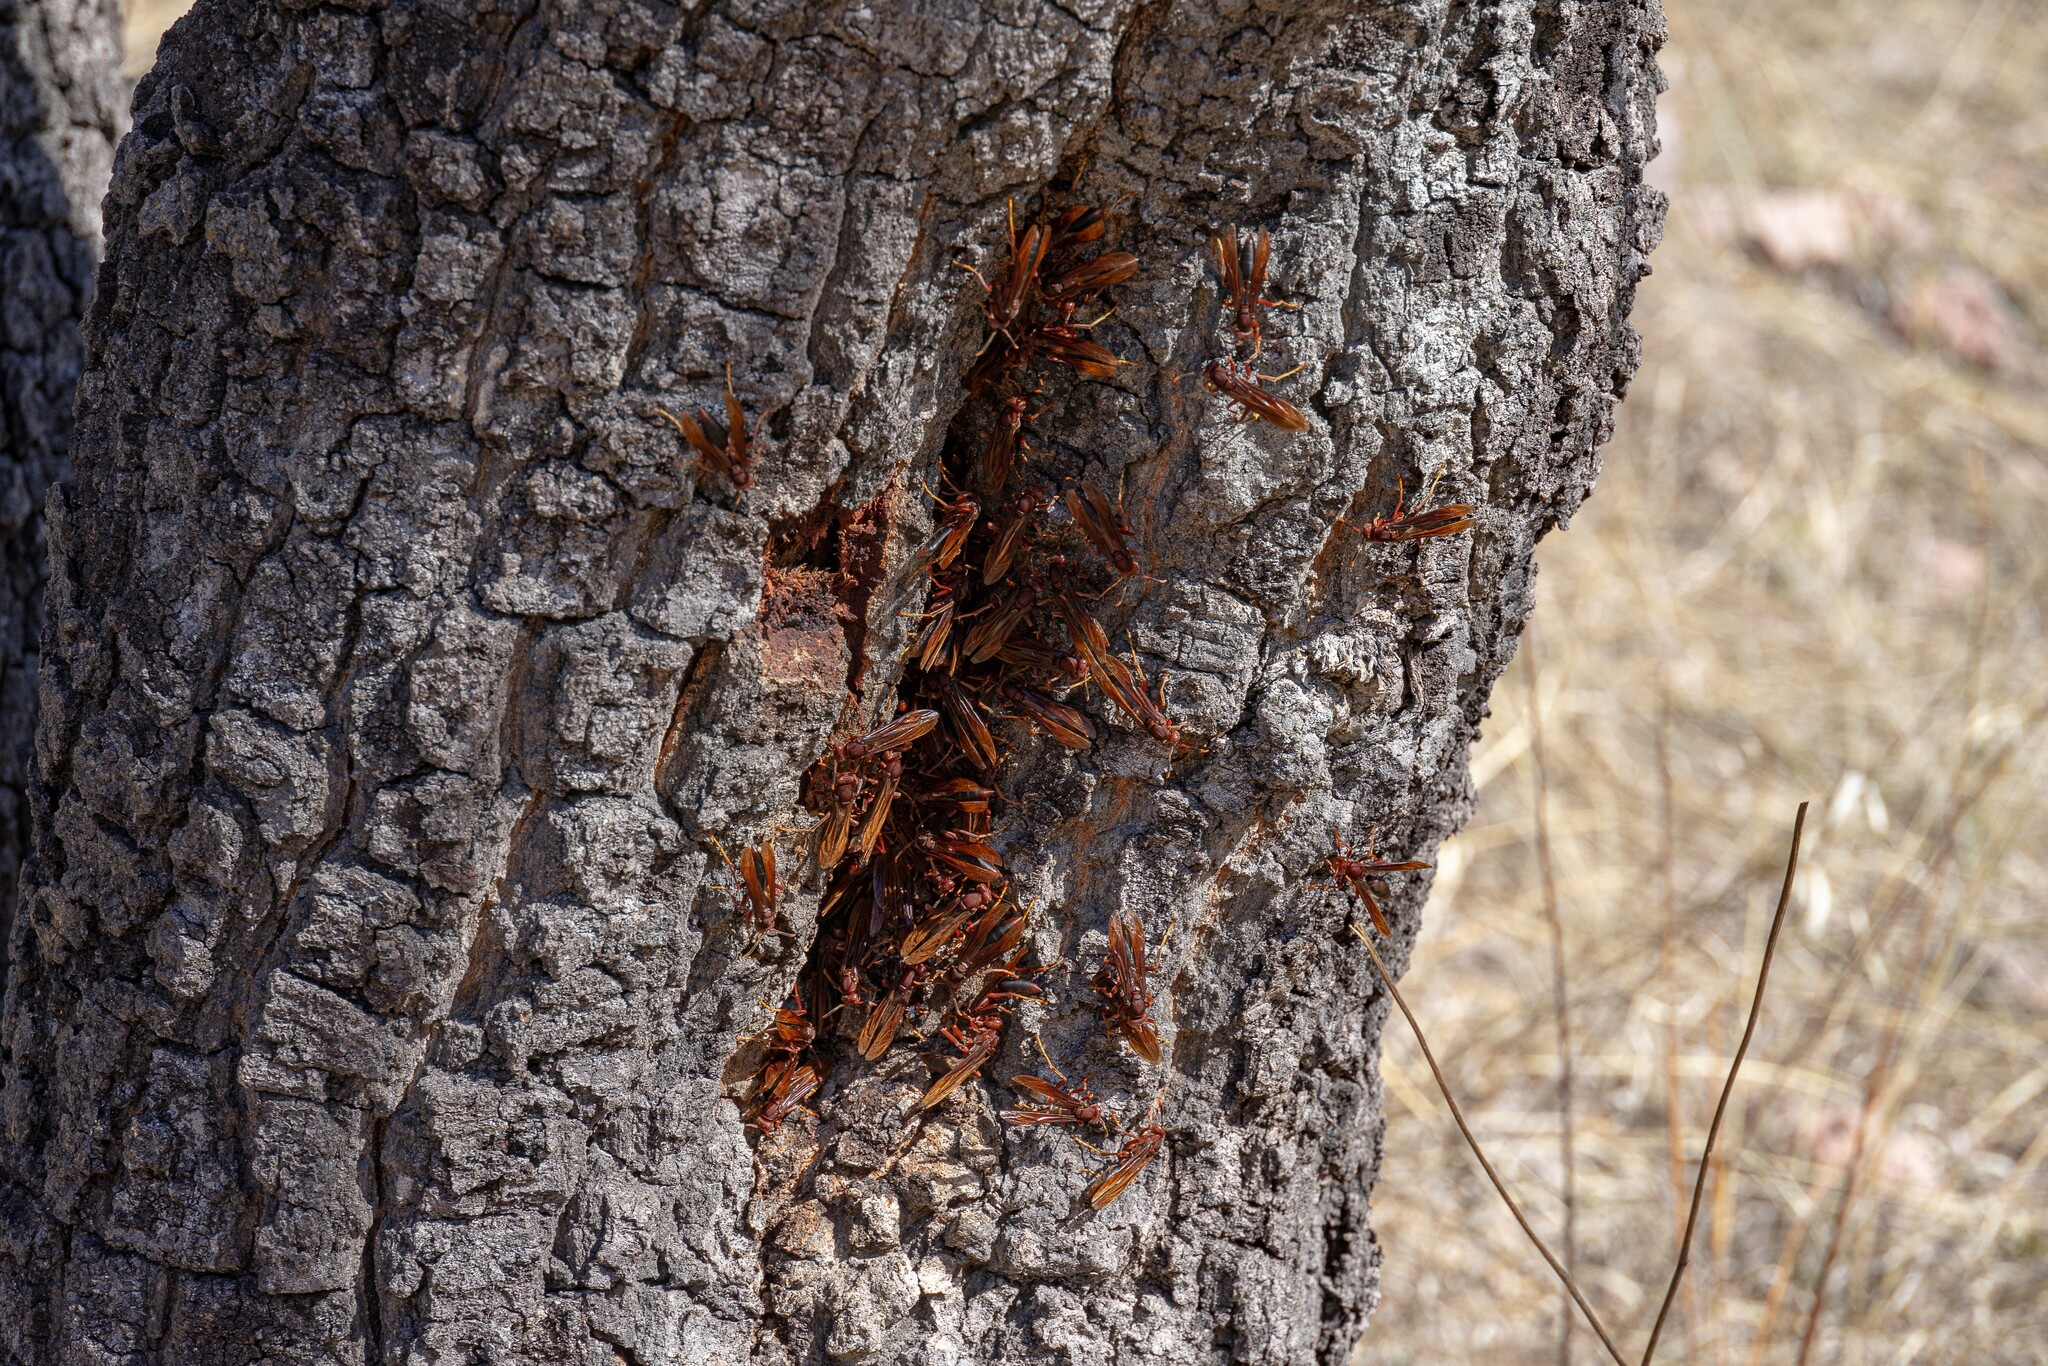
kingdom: Animalia
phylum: Arthropoda
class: Insecta
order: Hymenoptera
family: Eumenidae
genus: Polistes
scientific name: Polistes canadensis
